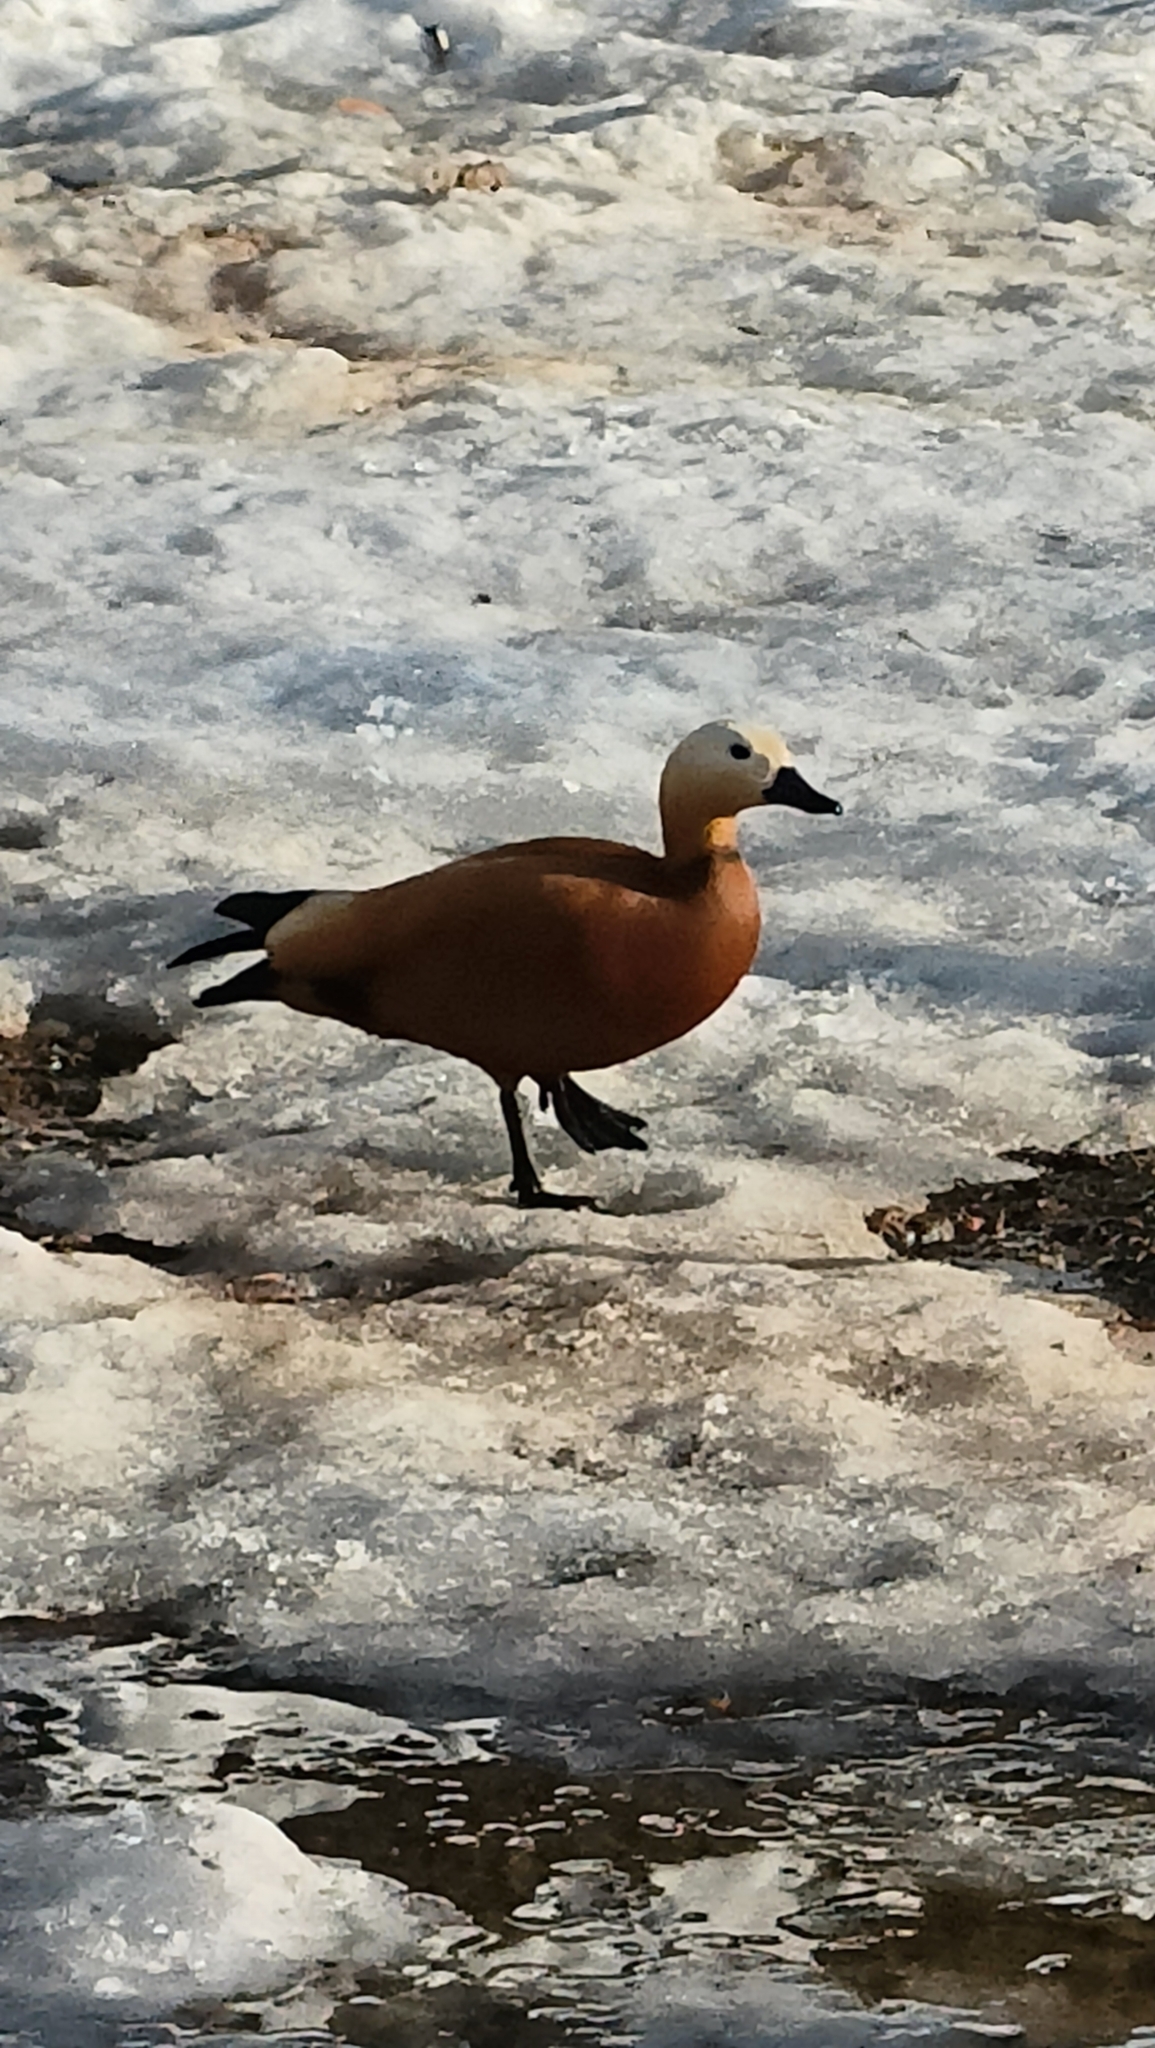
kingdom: Animalia
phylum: Chordata
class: Aves
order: Anseriformes
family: Anatidae
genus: Tadorna
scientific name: Tadorna ferruginea
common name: Ruddy shelduck
